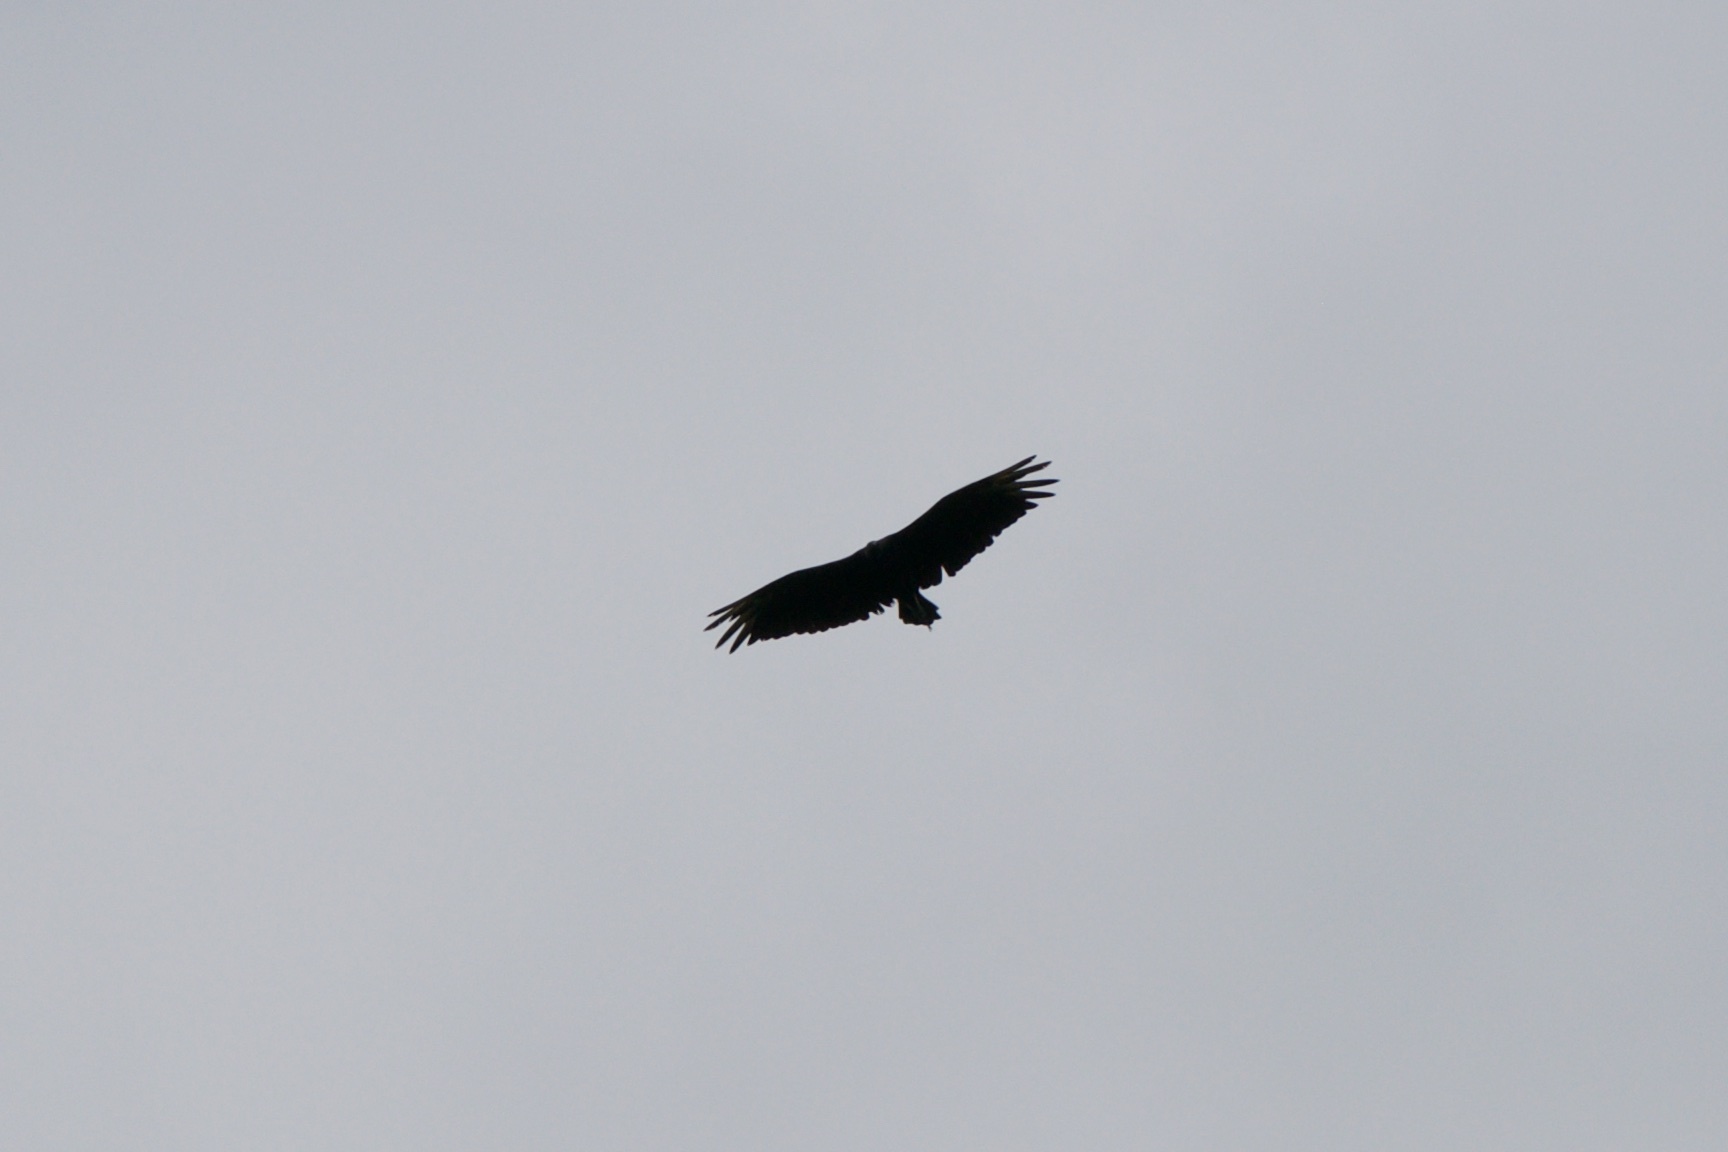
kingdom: Animalia
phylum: Chordata
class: Aves
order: Accipitriformes
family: Cathartidae
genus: Coragyps
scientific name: Coragyps atratus
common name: Black vulture
